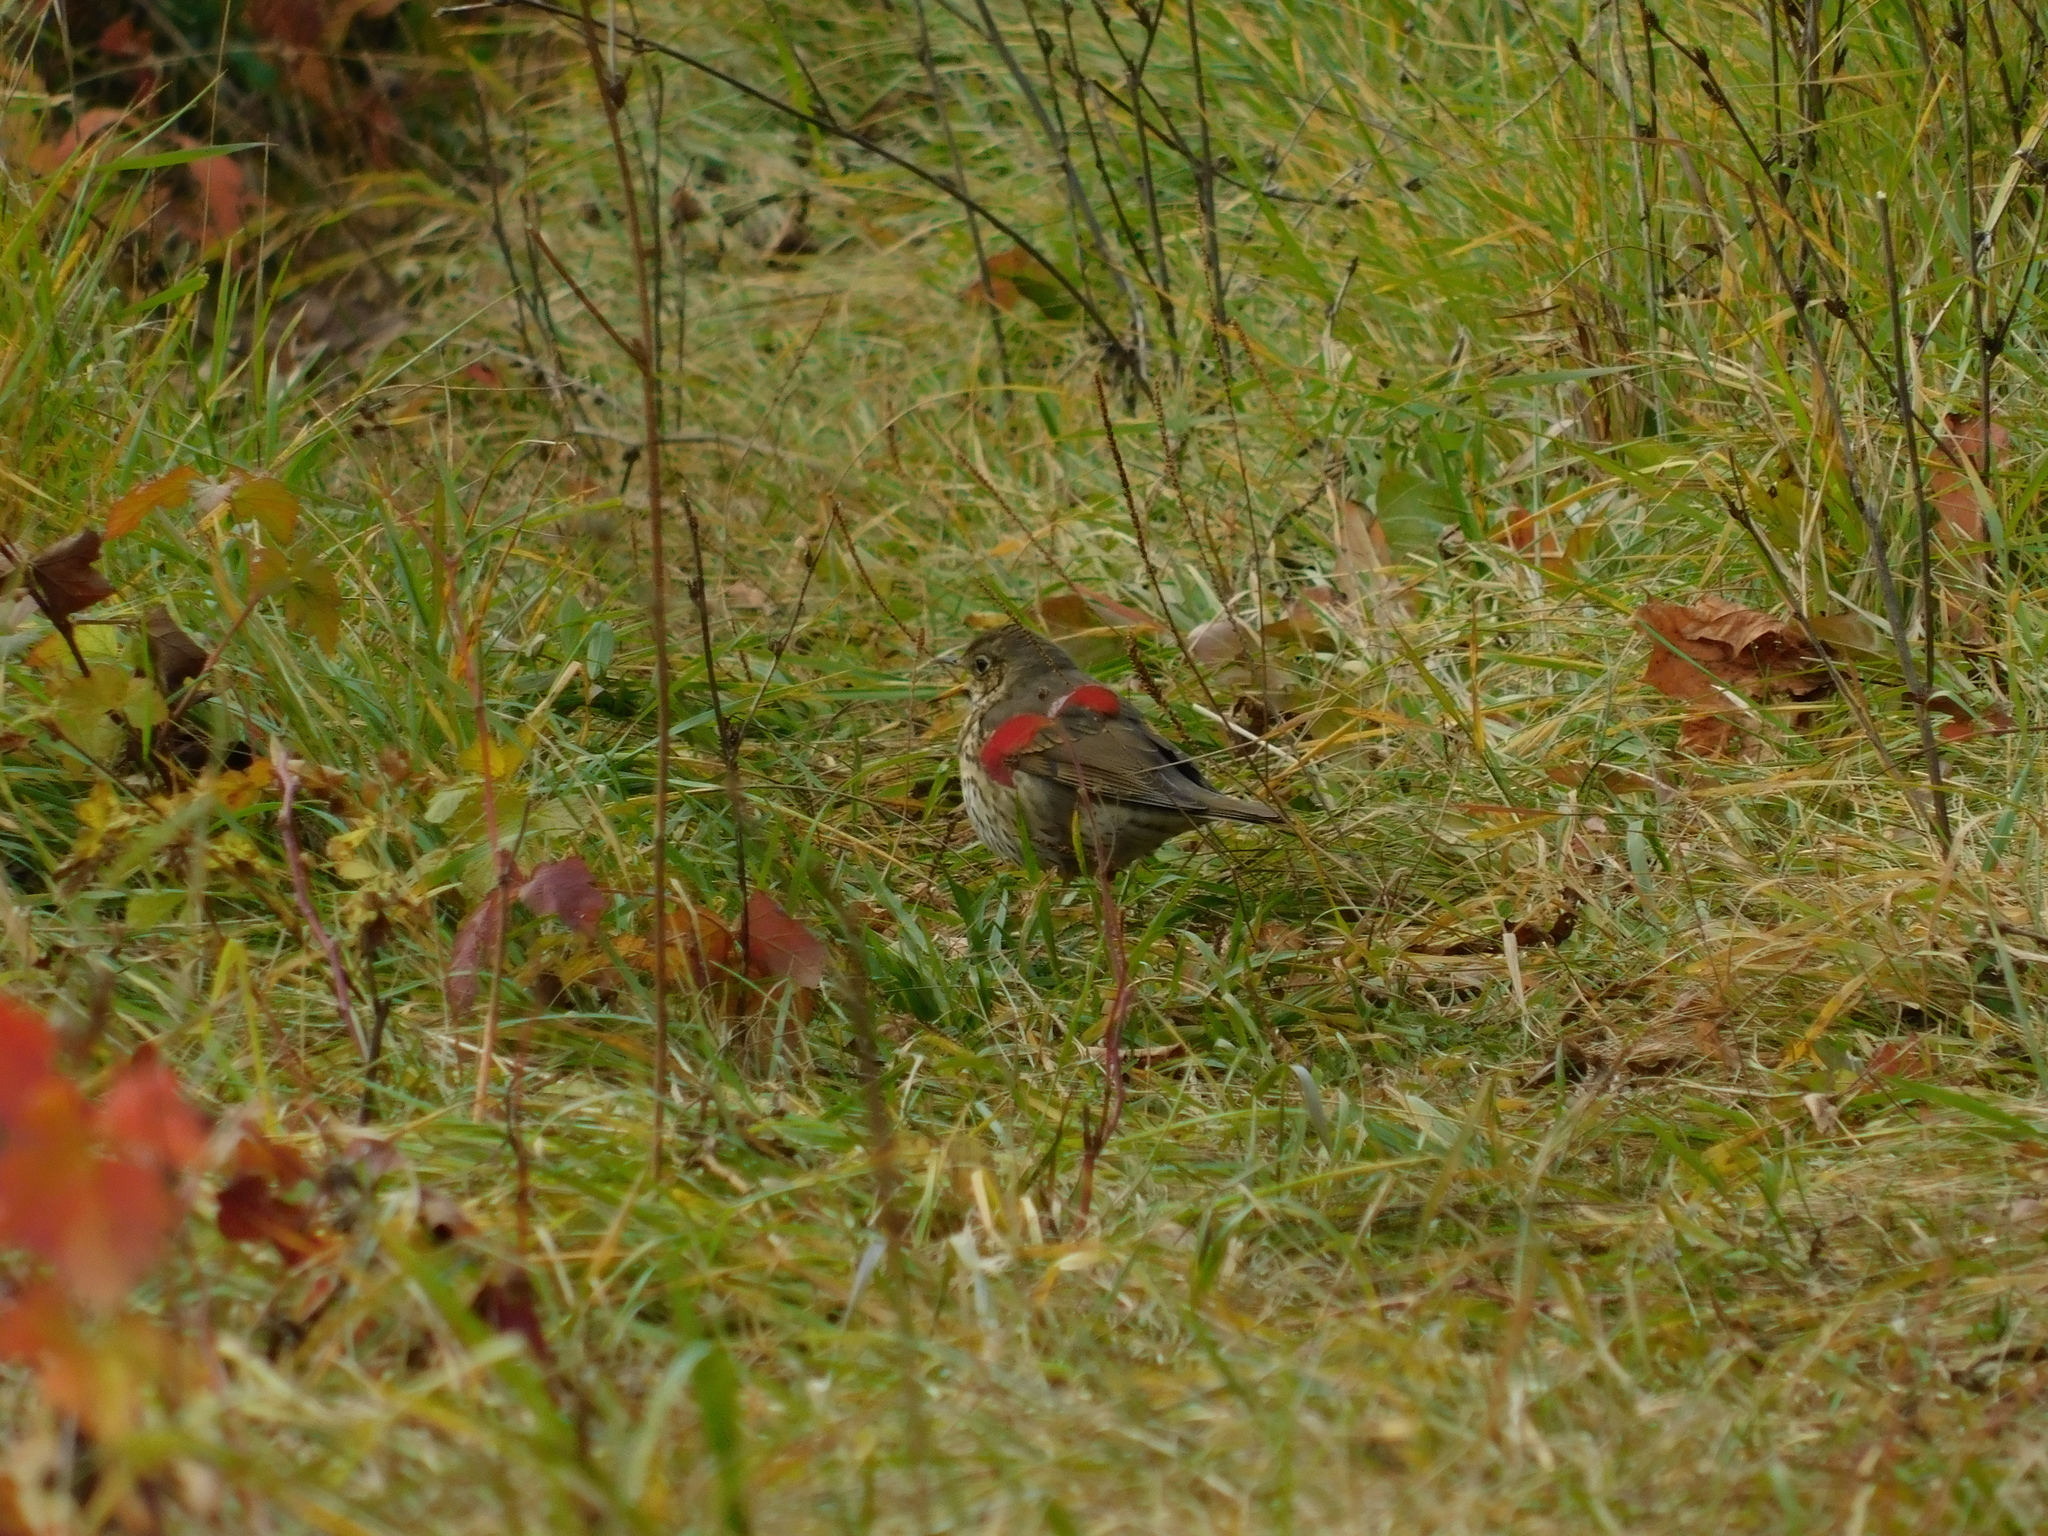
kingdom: Animalia
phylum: Chordata
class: Aves
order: Passeriformes
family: Turdidae
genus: Turdus
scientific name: Turdus philomelos
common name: Song thrush
